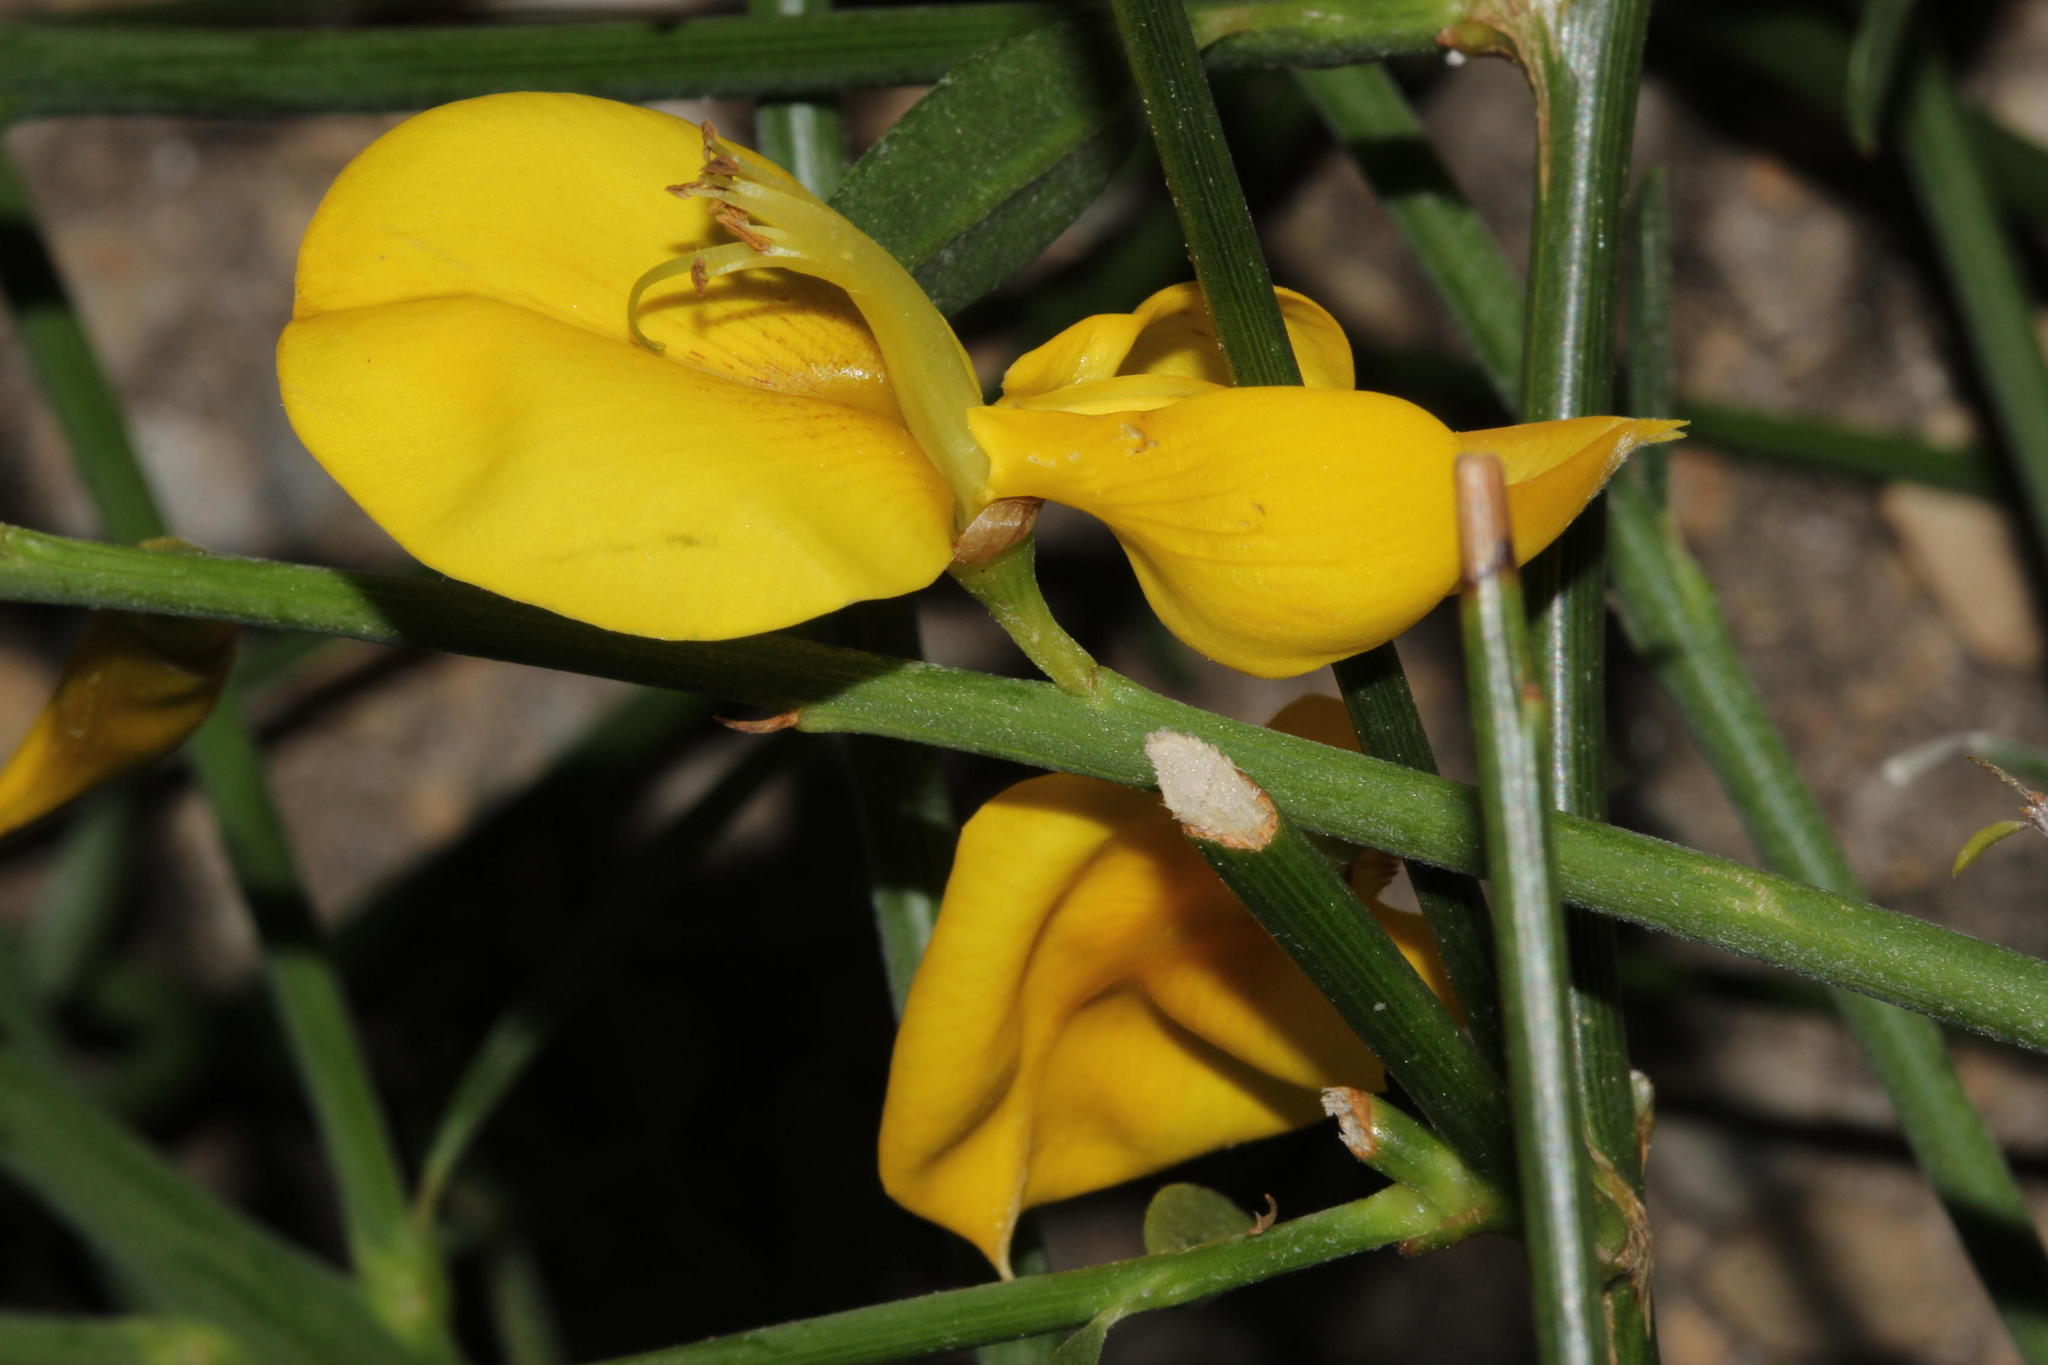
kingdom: Plantae
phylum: Tracheophyta
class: Magnoliopsida
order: Fabales
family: Fabaceae
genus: Spartium
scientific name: Spartium junceum
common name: Spanish broom
